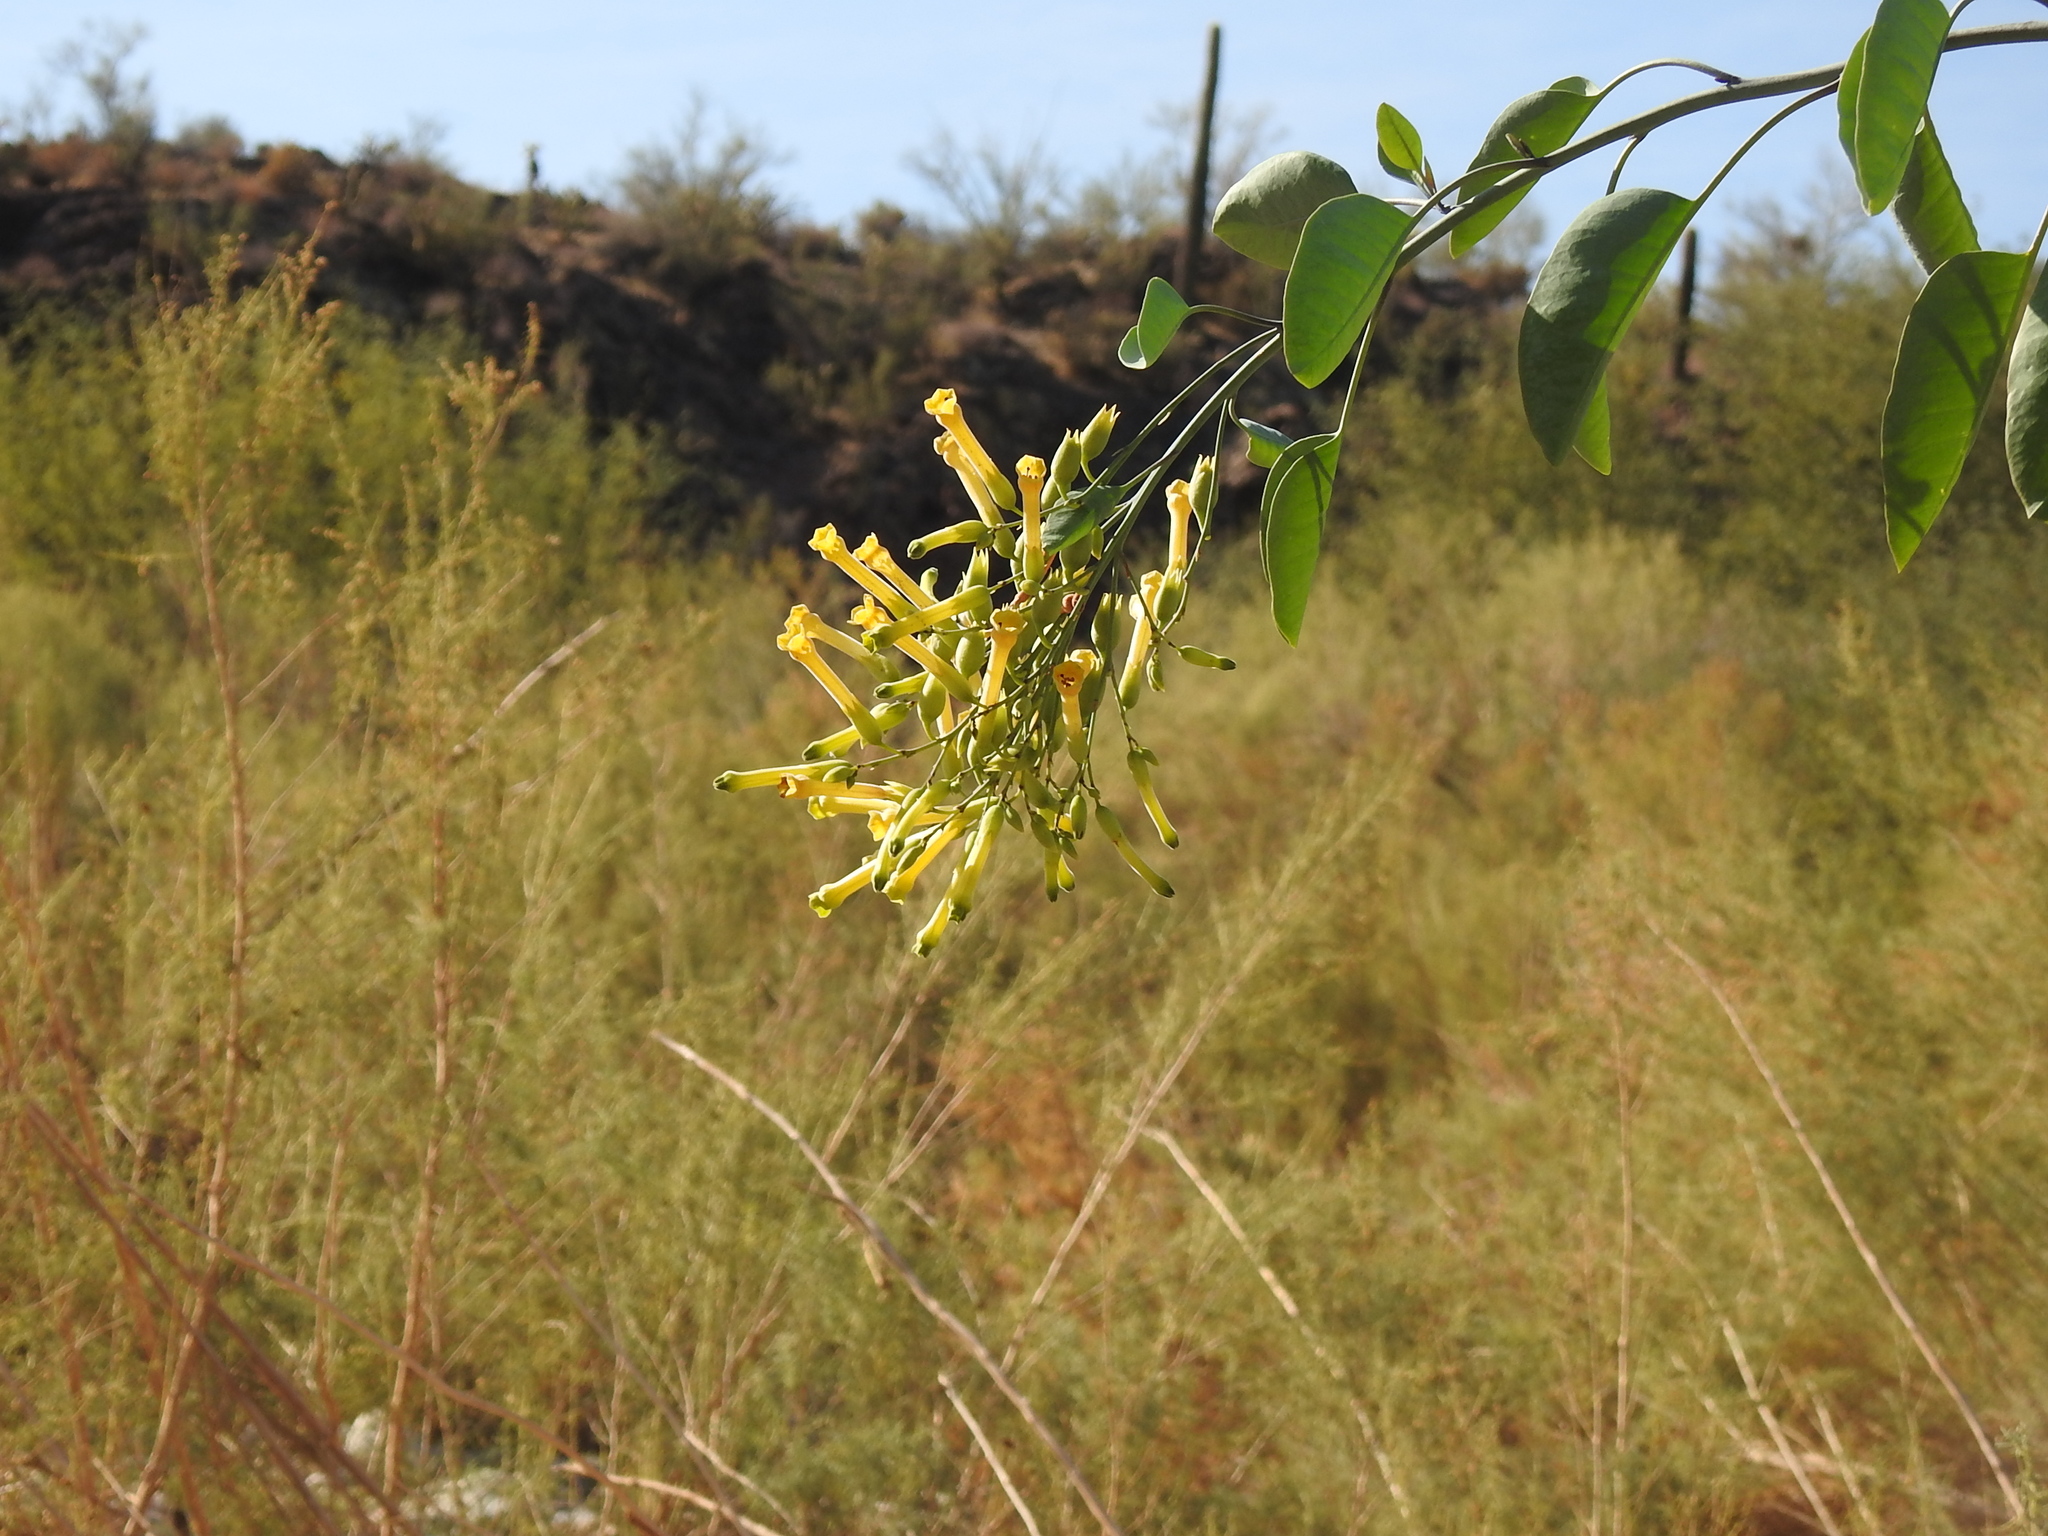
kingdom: Plantae
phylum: Tracheophyta
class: Magnoliopsida
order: Solanales
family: Solanaceae
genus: Nicotiana
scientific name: Nicotiana glauca
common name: Tree tobacco
